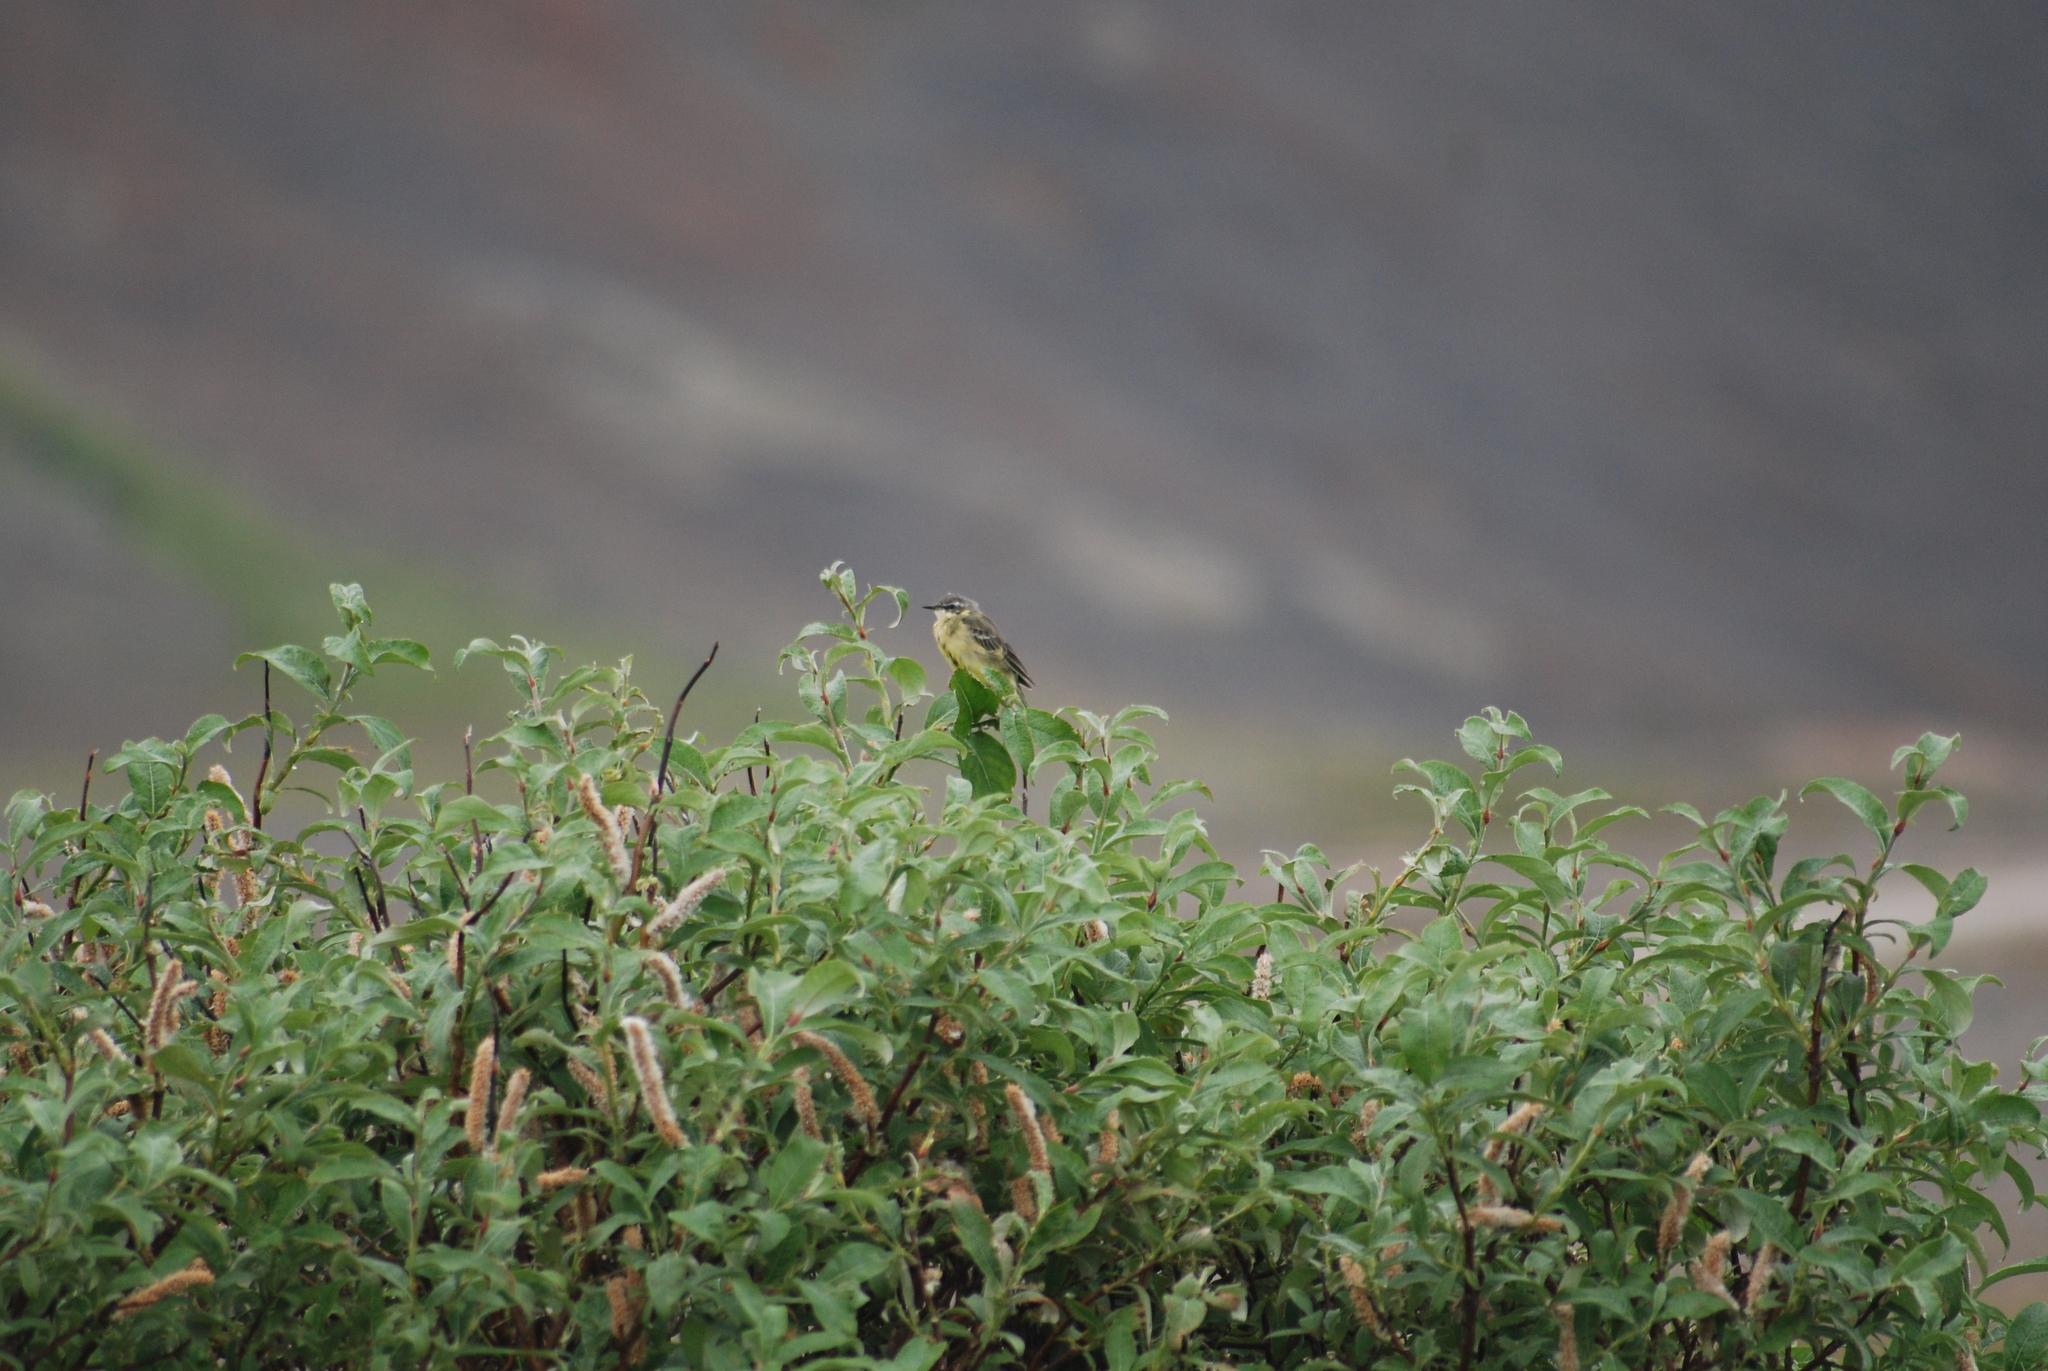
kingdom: Animalia
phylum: Chordata
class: Aves
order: Passeriformes
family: Motacillidae
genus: Motacilla
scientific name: Motacilla tschutschensis
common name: Eastern yellow wagtail
